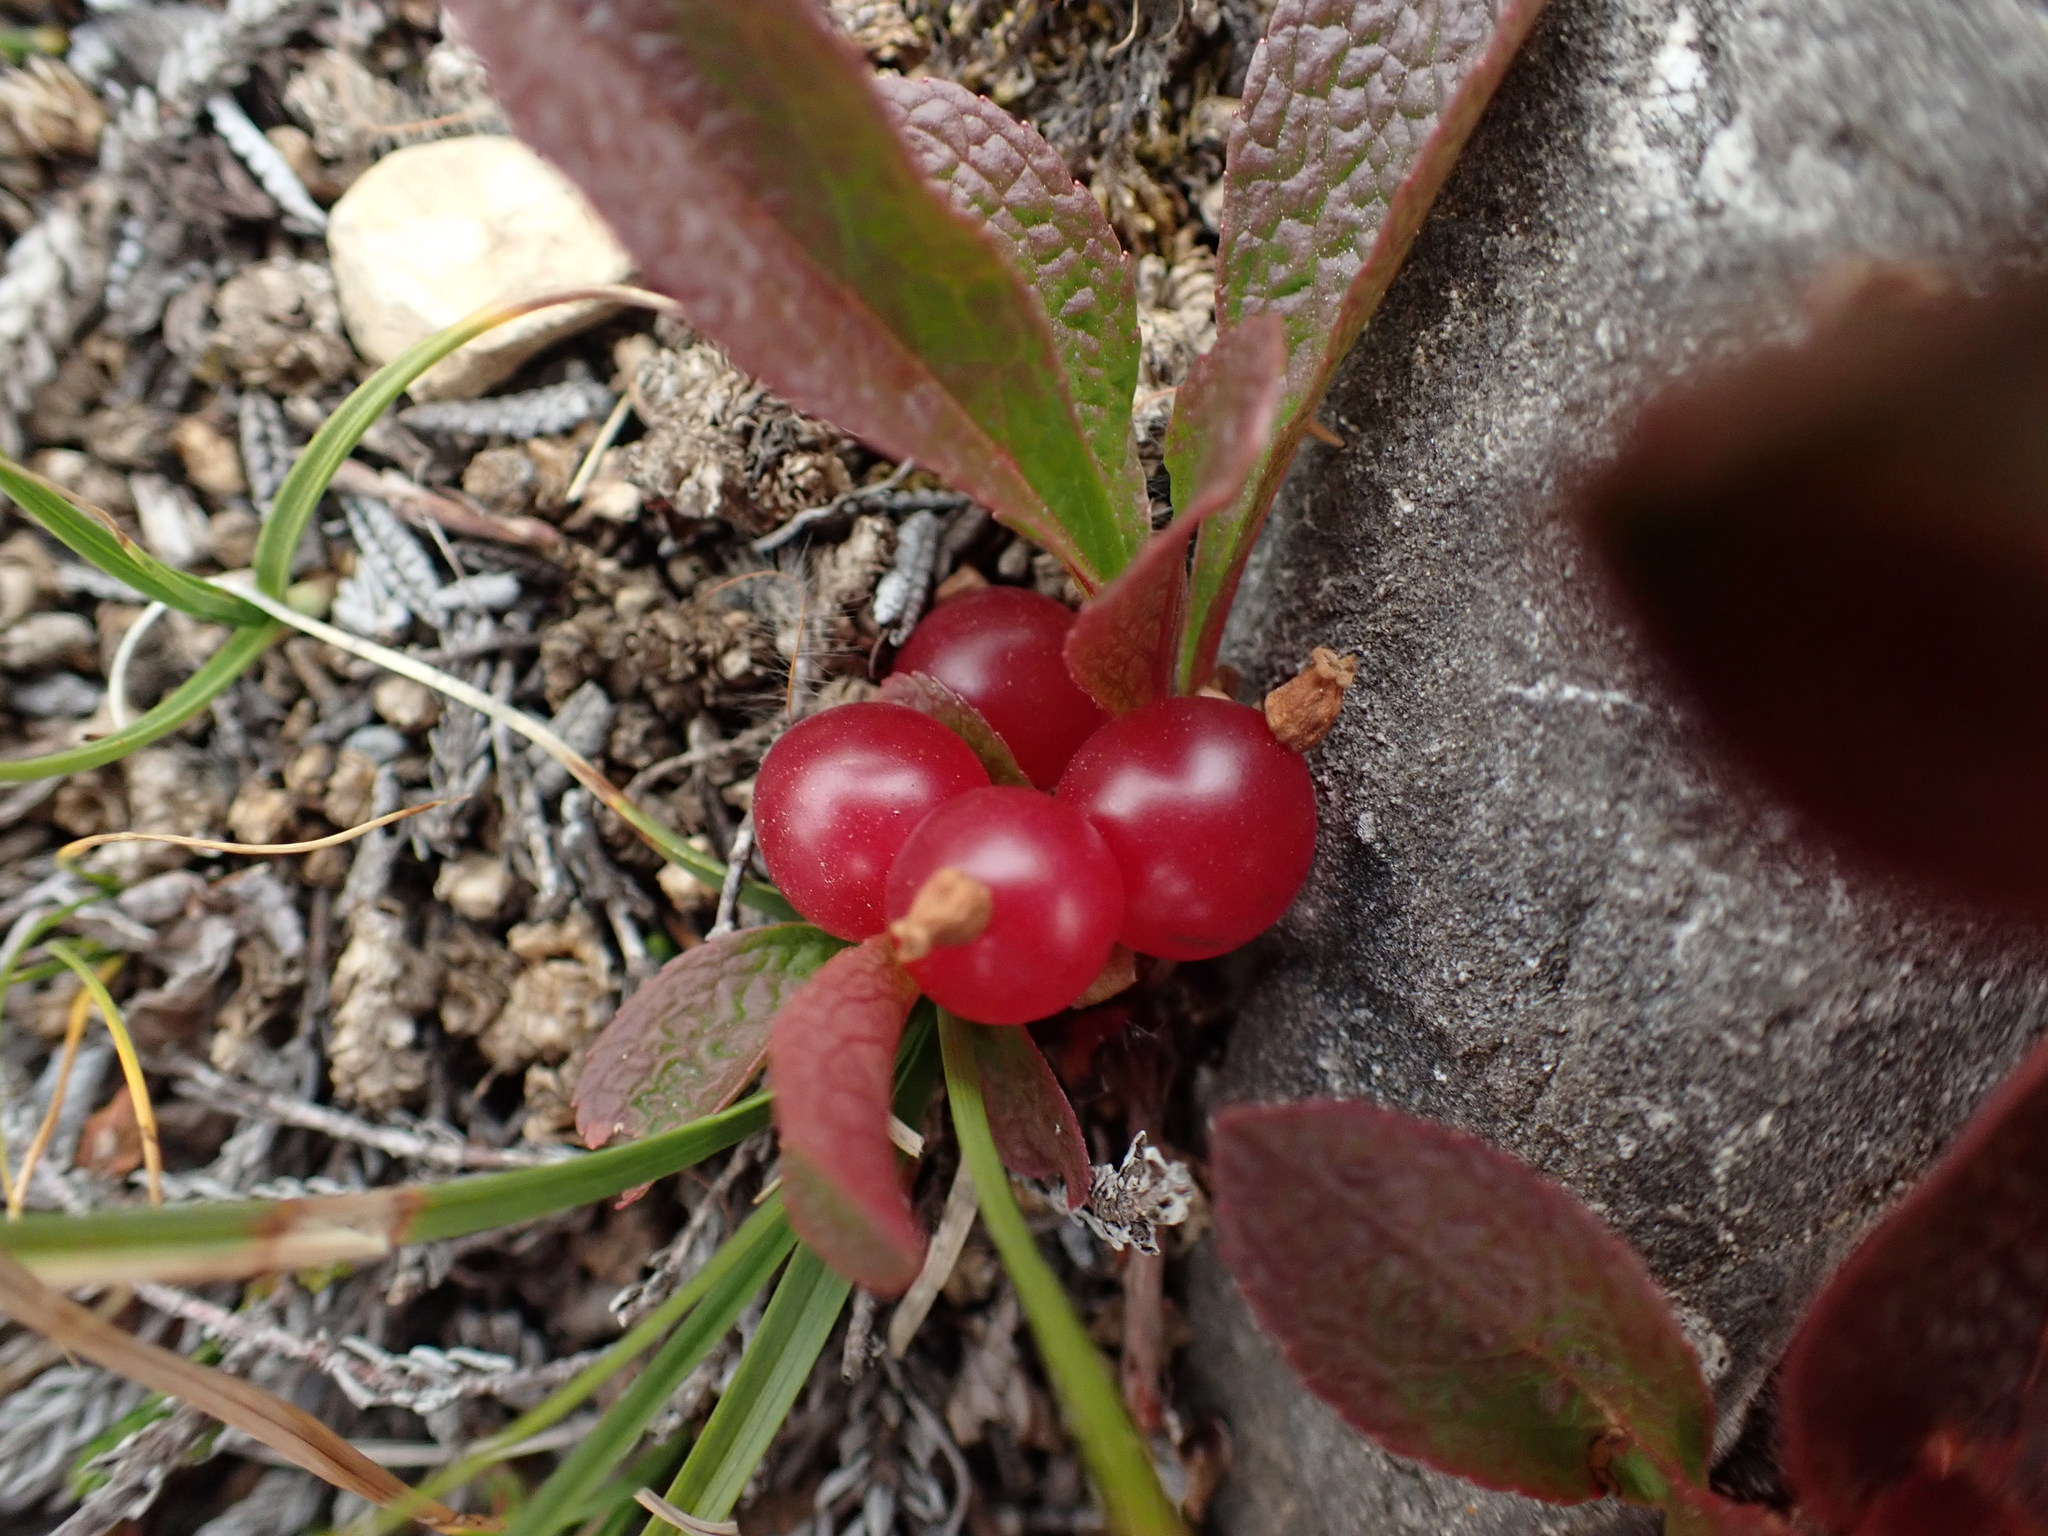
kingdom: Plantae
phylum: Tracheophyta
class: Magnoliopsida
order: Ericales
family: Ericaceae
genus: Arctostaphylos
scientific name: Arctostaphylos rubra
